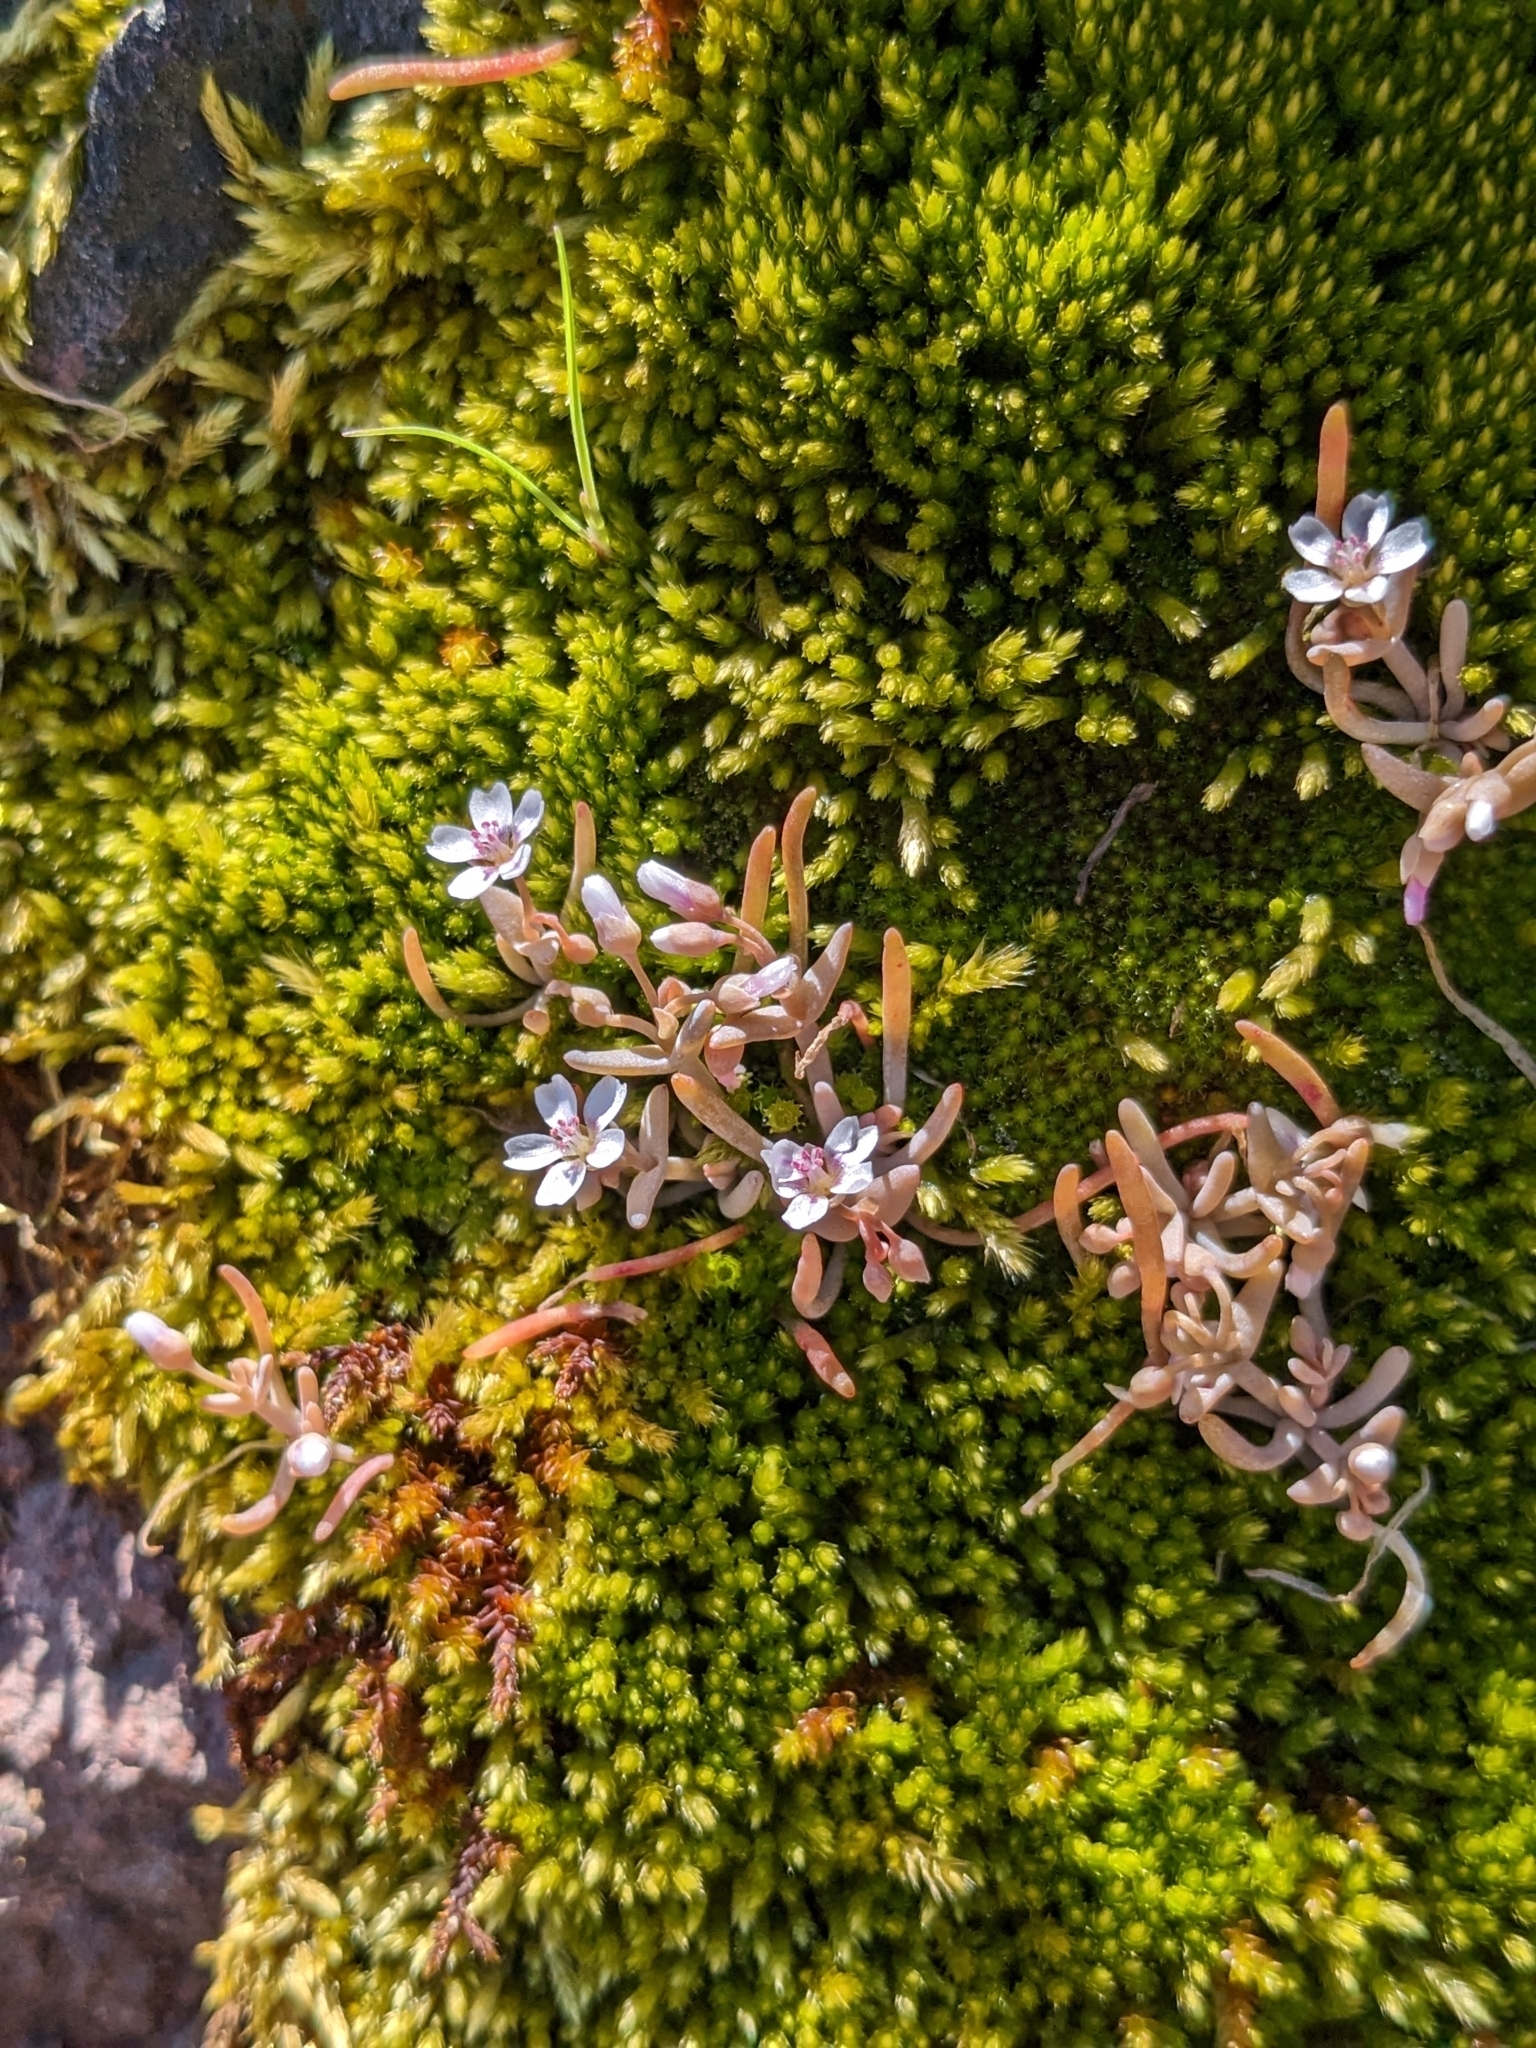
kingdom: Plantae
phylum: Tracheophyta
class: Magnoliopsida
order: Caryophyllales
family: Montiaceae
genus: Claytonia
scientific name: Claytonia exigua
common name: Pale spring beauty
